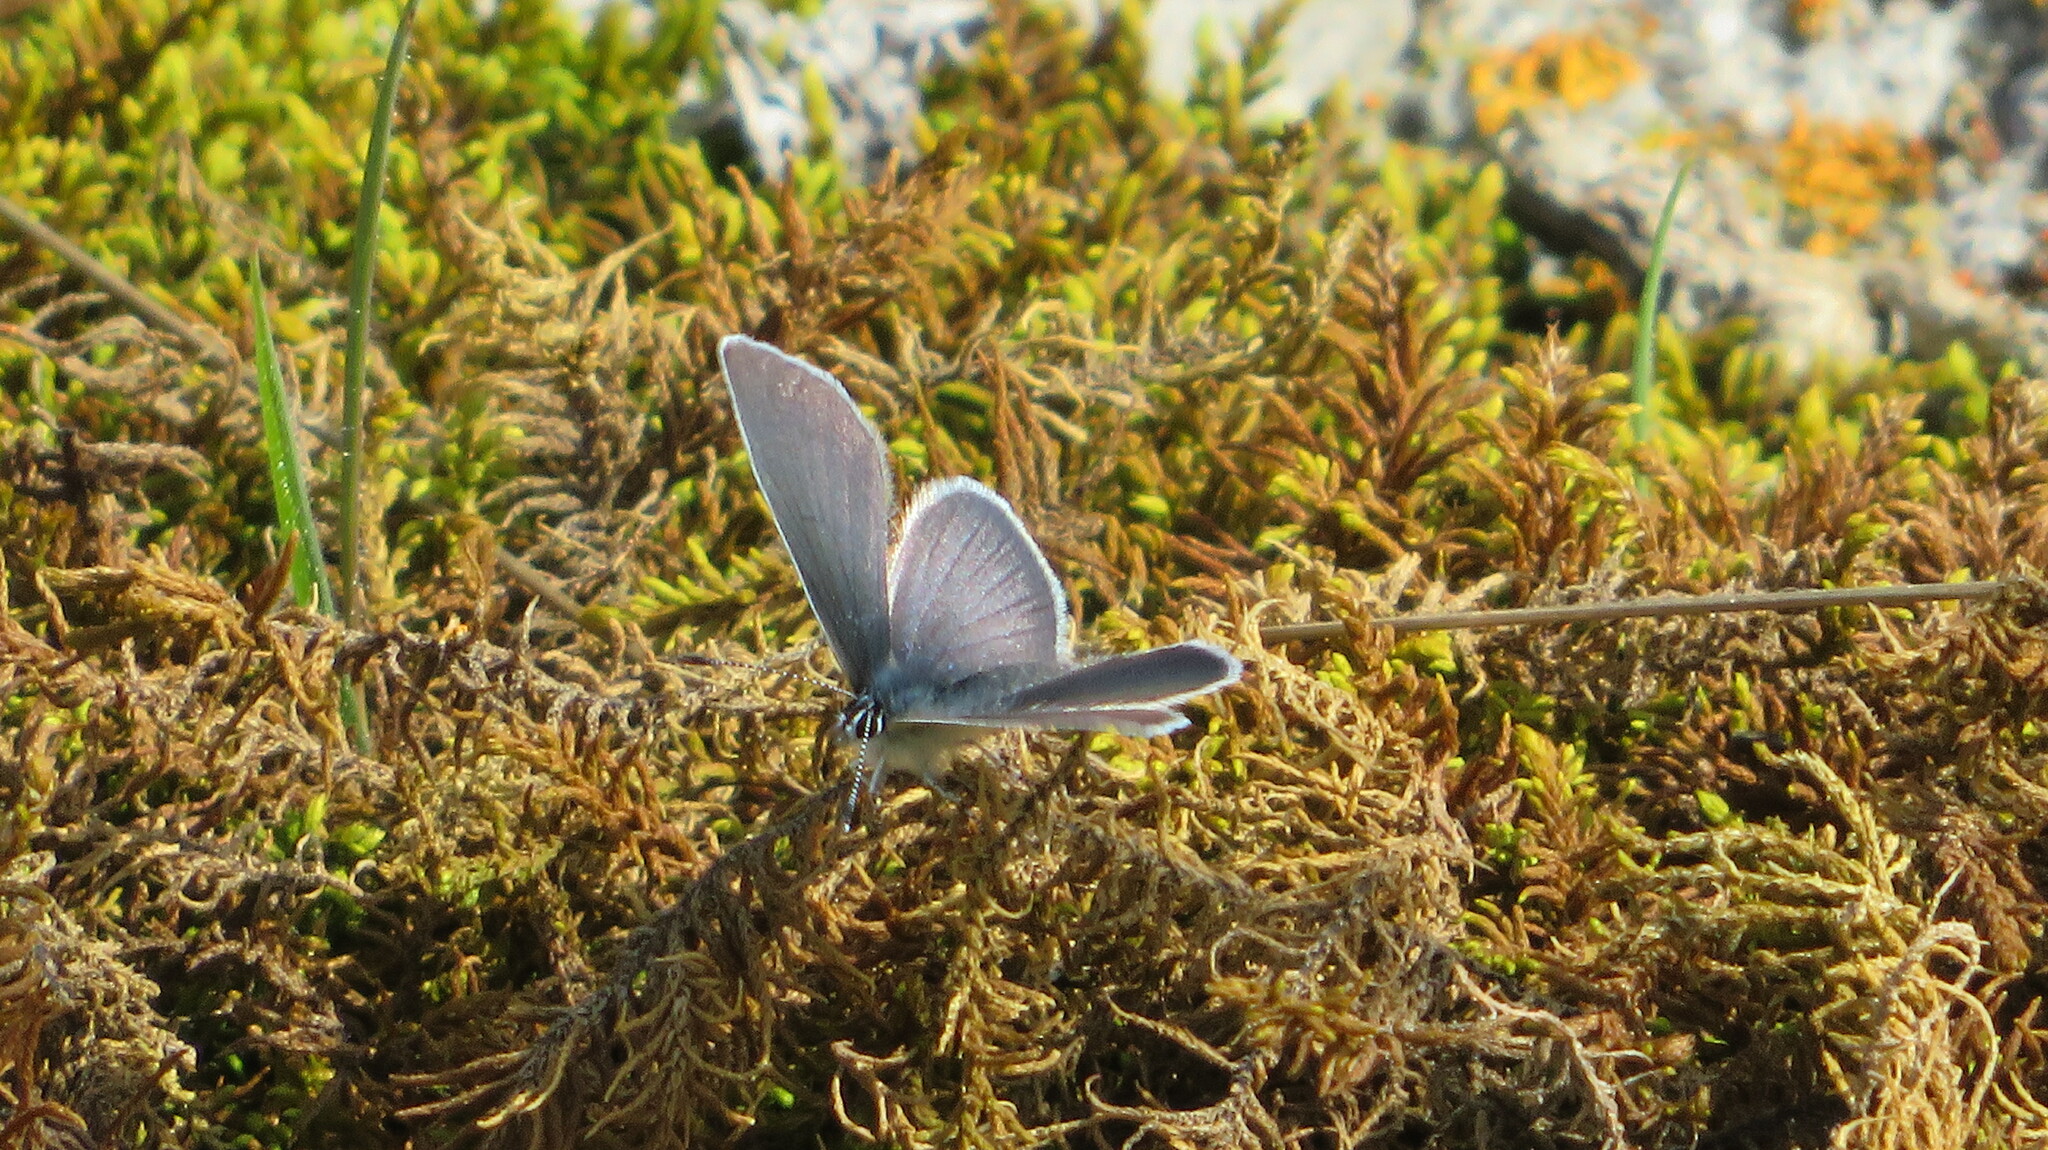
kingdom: Animalia
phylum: Arthropoda
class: Insecta
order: Lepidoptera
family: Lycaenidae
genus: Cupido
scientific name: Cupido minimus
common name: Small blue
